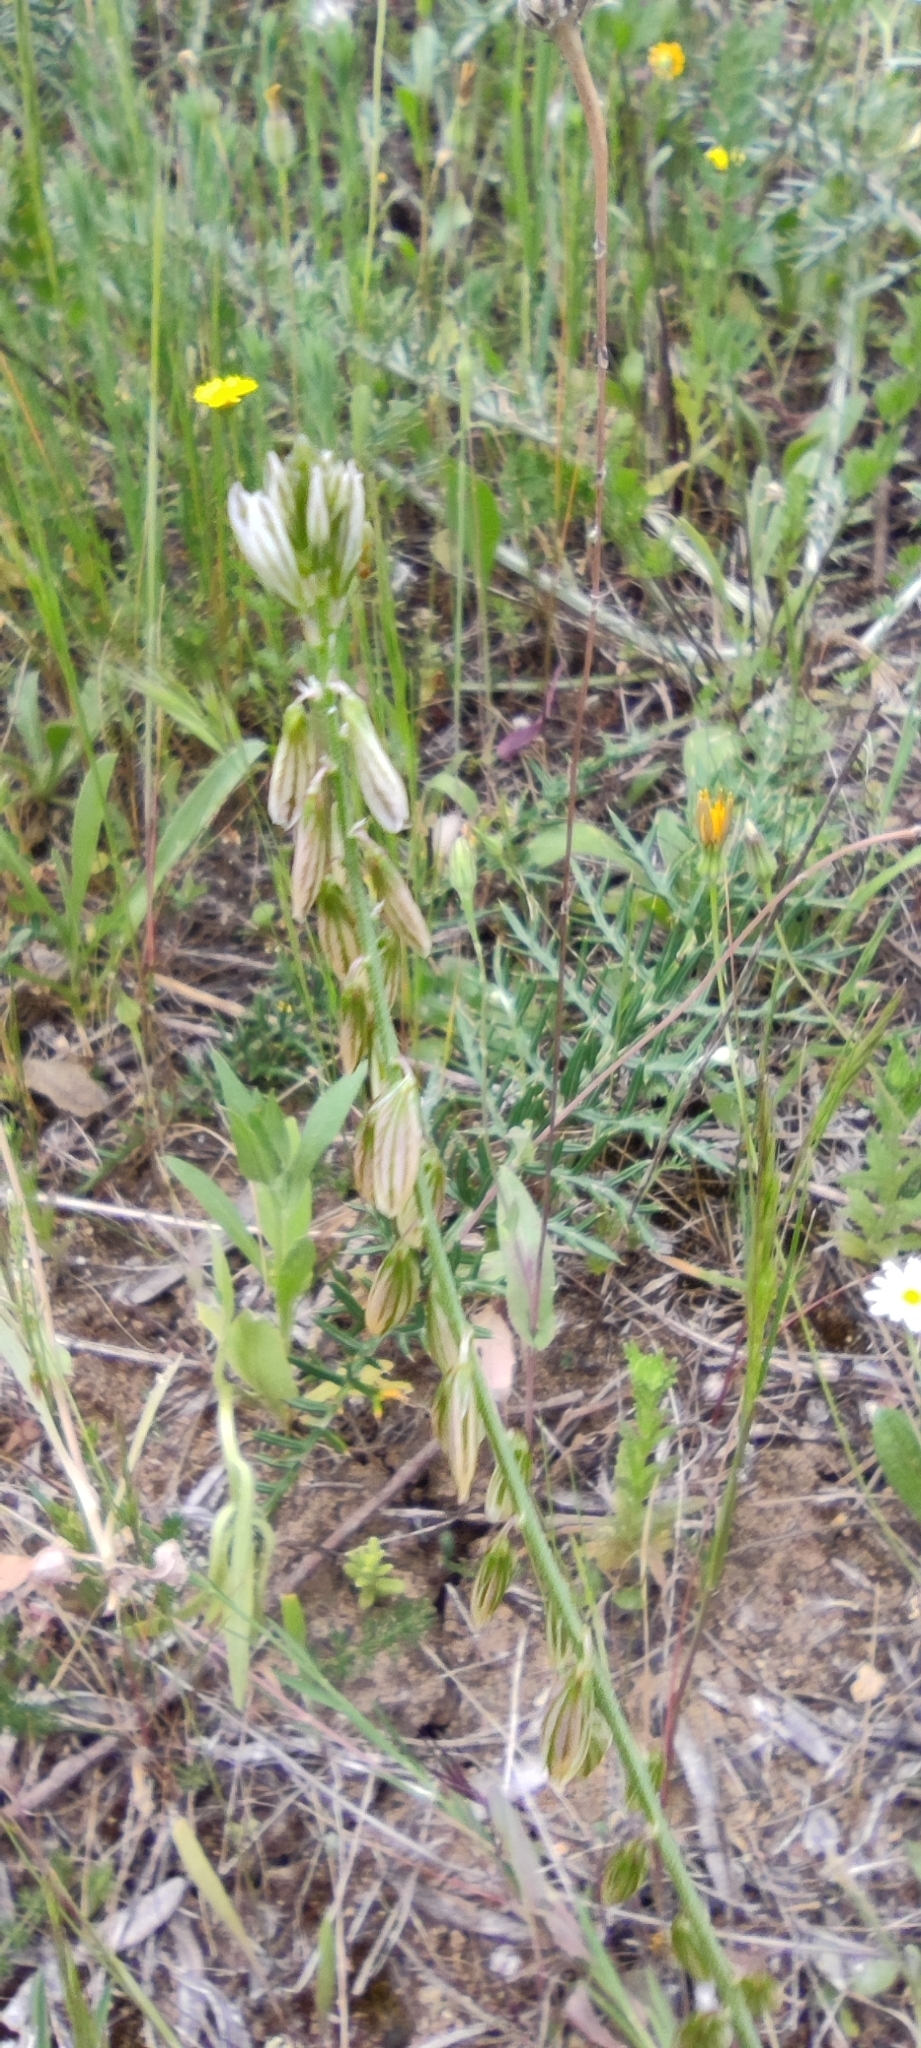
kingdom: Plantae
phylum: Tracheophyta
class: Magnoliopsida
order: Fabales
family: Polygalaceae
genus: Polygala
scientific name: Polygala monspeliaca
